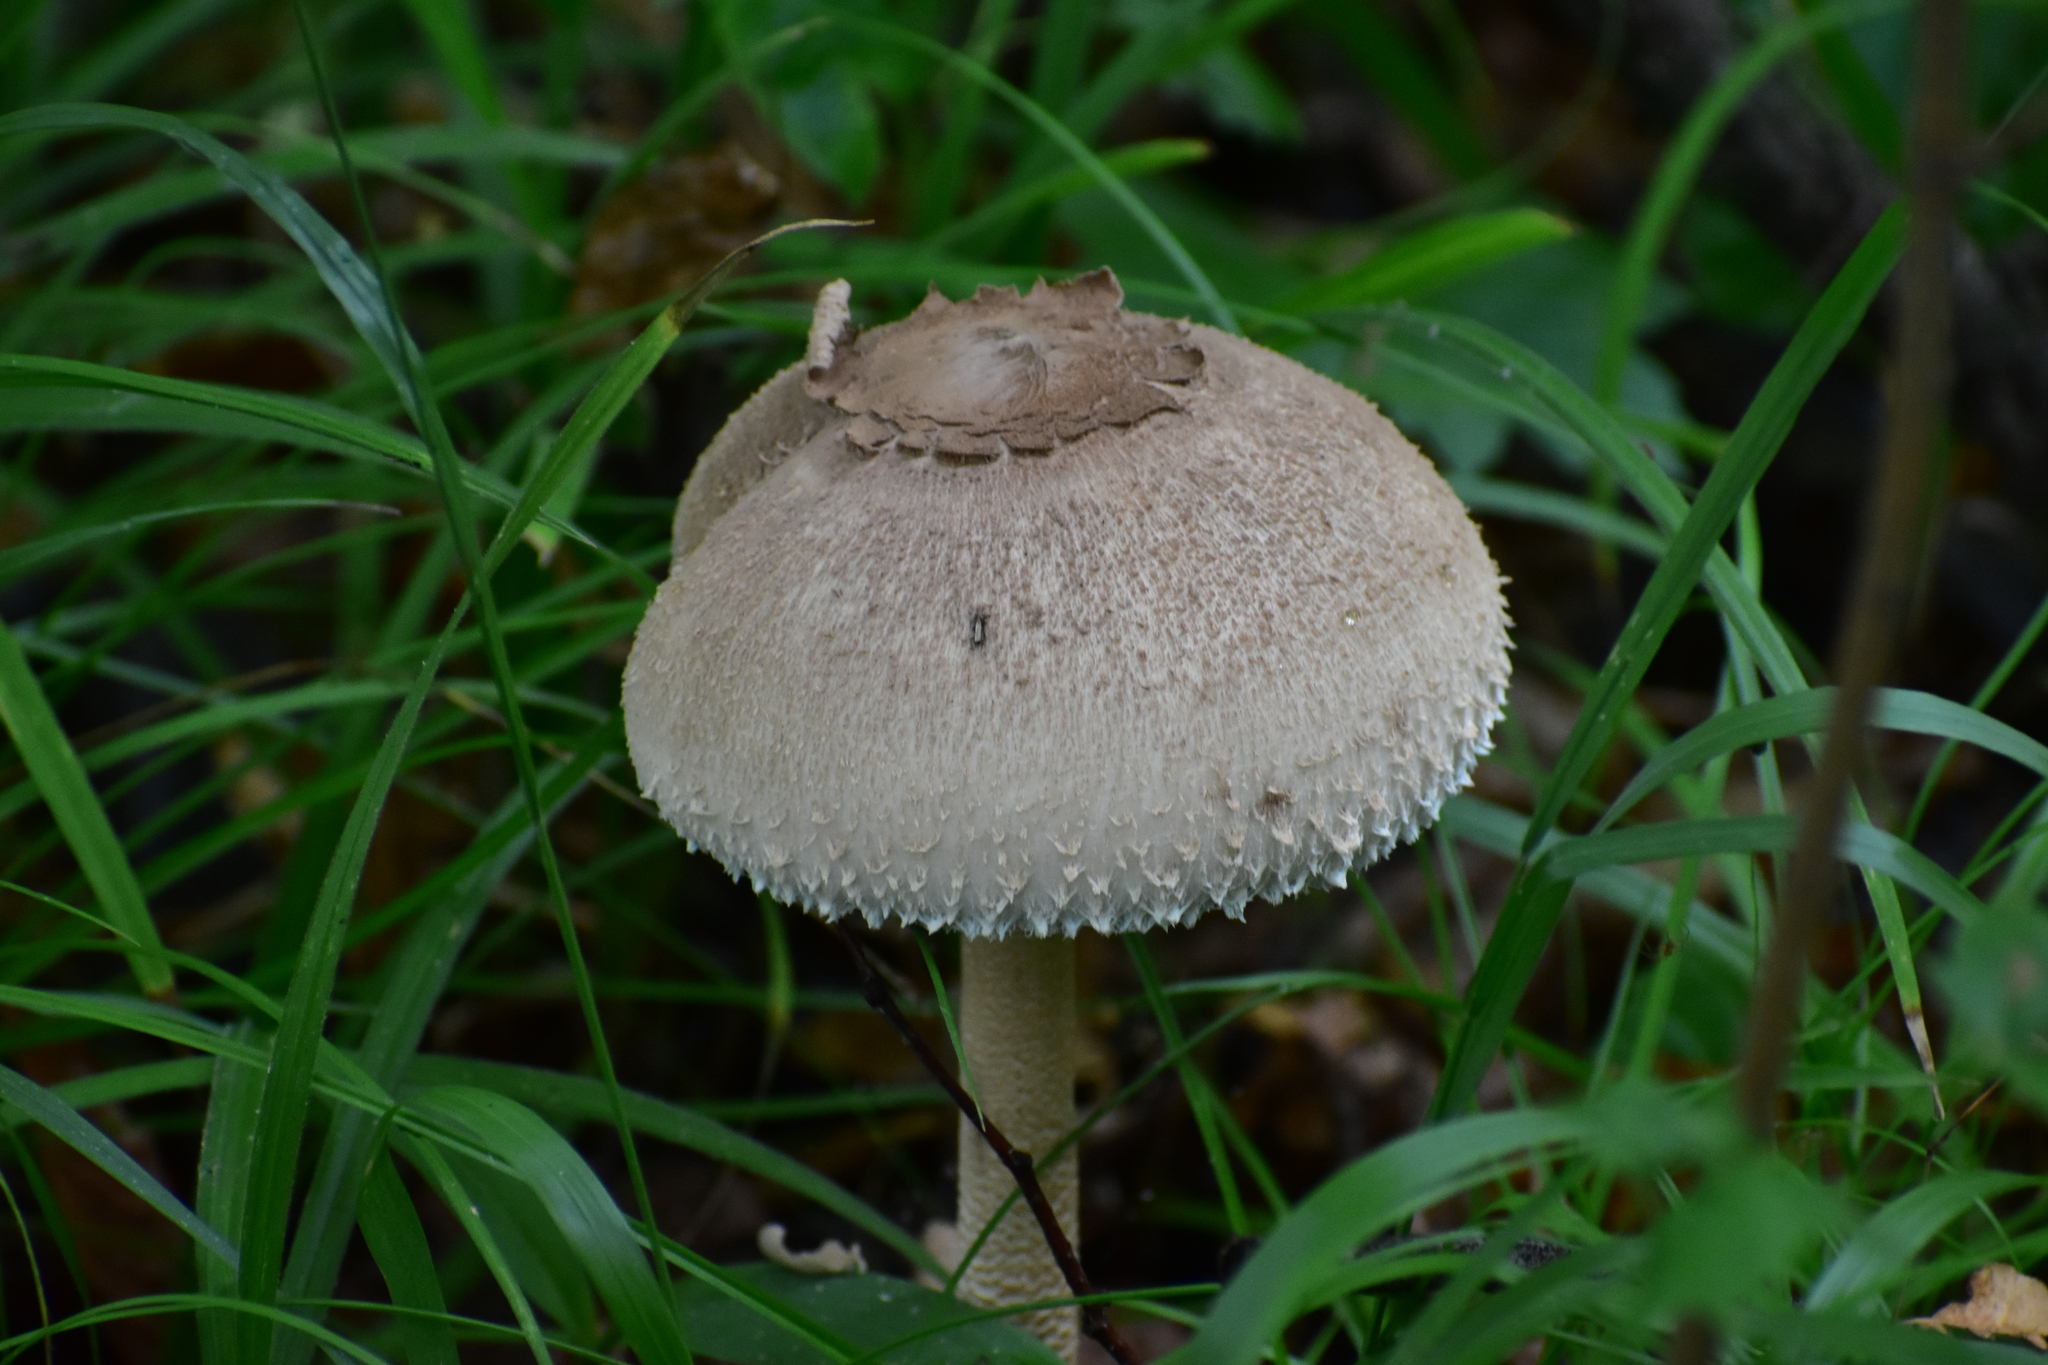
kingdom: Fungi
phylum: Basidiomycota
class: Agaricomycetes
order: Agaricales
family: Agaricaceae
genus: Macrolepiota
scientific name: Macrolepiota procera
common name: Parasol
